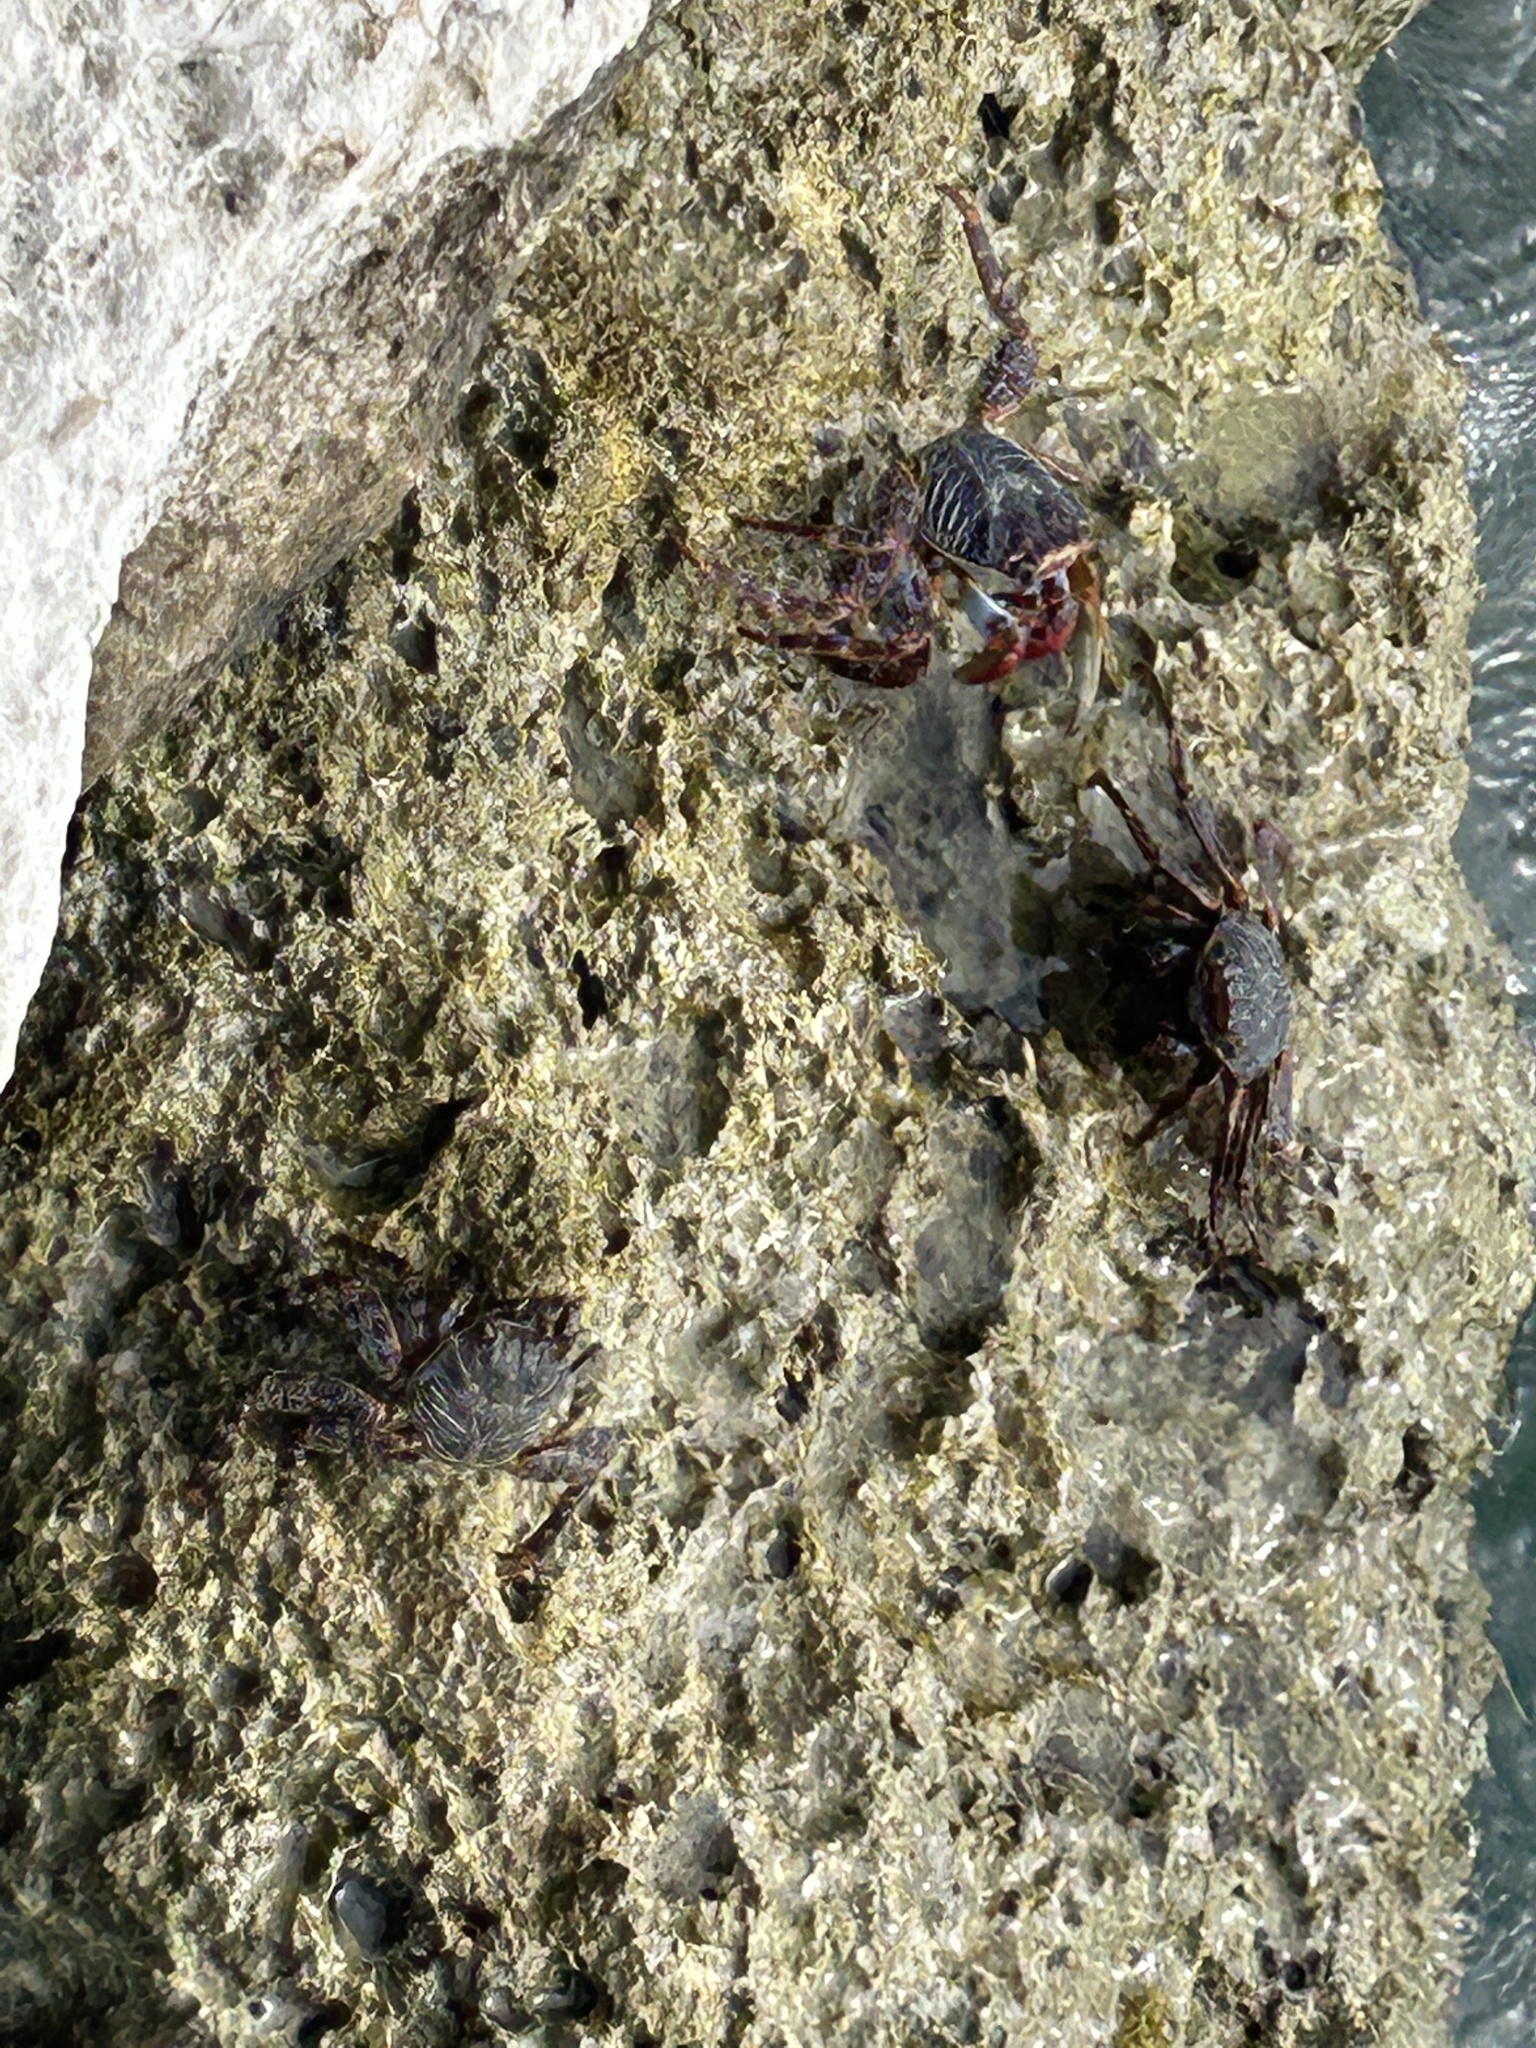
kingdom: Animalia
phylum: Arthropoda
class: Malacostraca
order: Decapoda
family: Grapsidae
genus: Grapsus
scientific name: Grapsus grapsus
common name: Sally lightfoot
